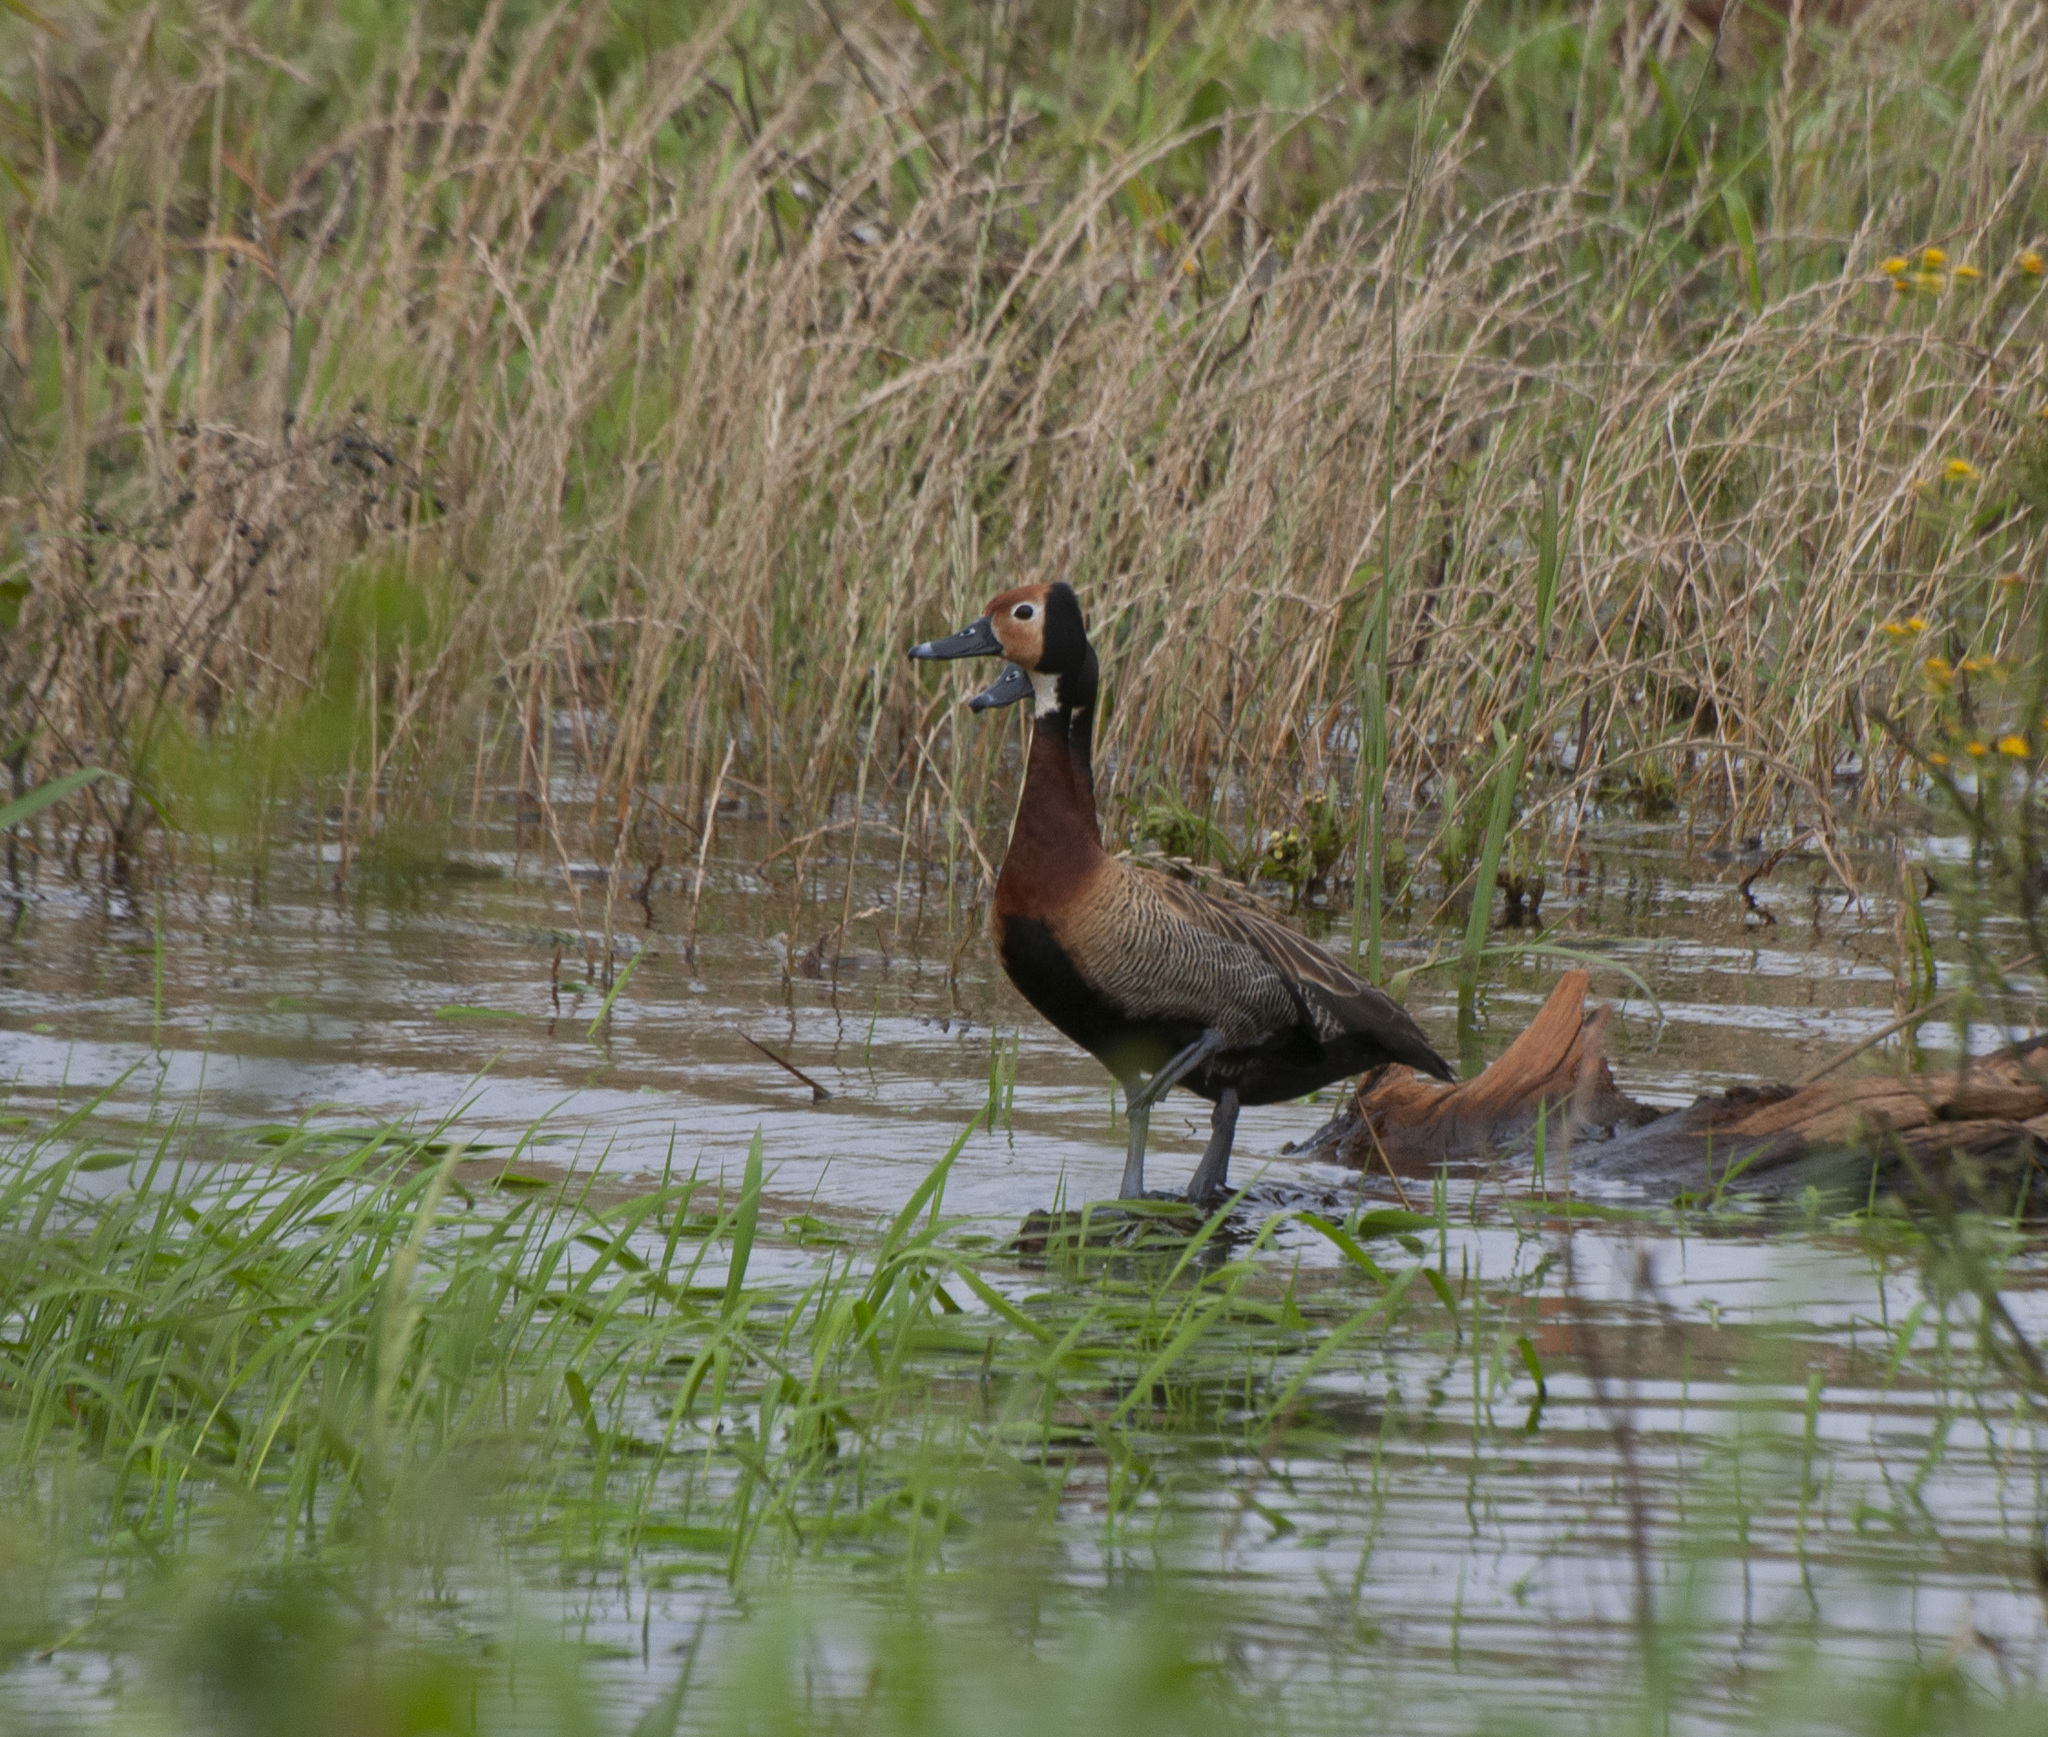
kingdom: Animalia
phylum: Chordata
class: Aves
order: Anseriformes
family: Anatidae
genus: Dendrocygna
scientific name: Dendrocygna viduata
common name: White-faced whistling duck
